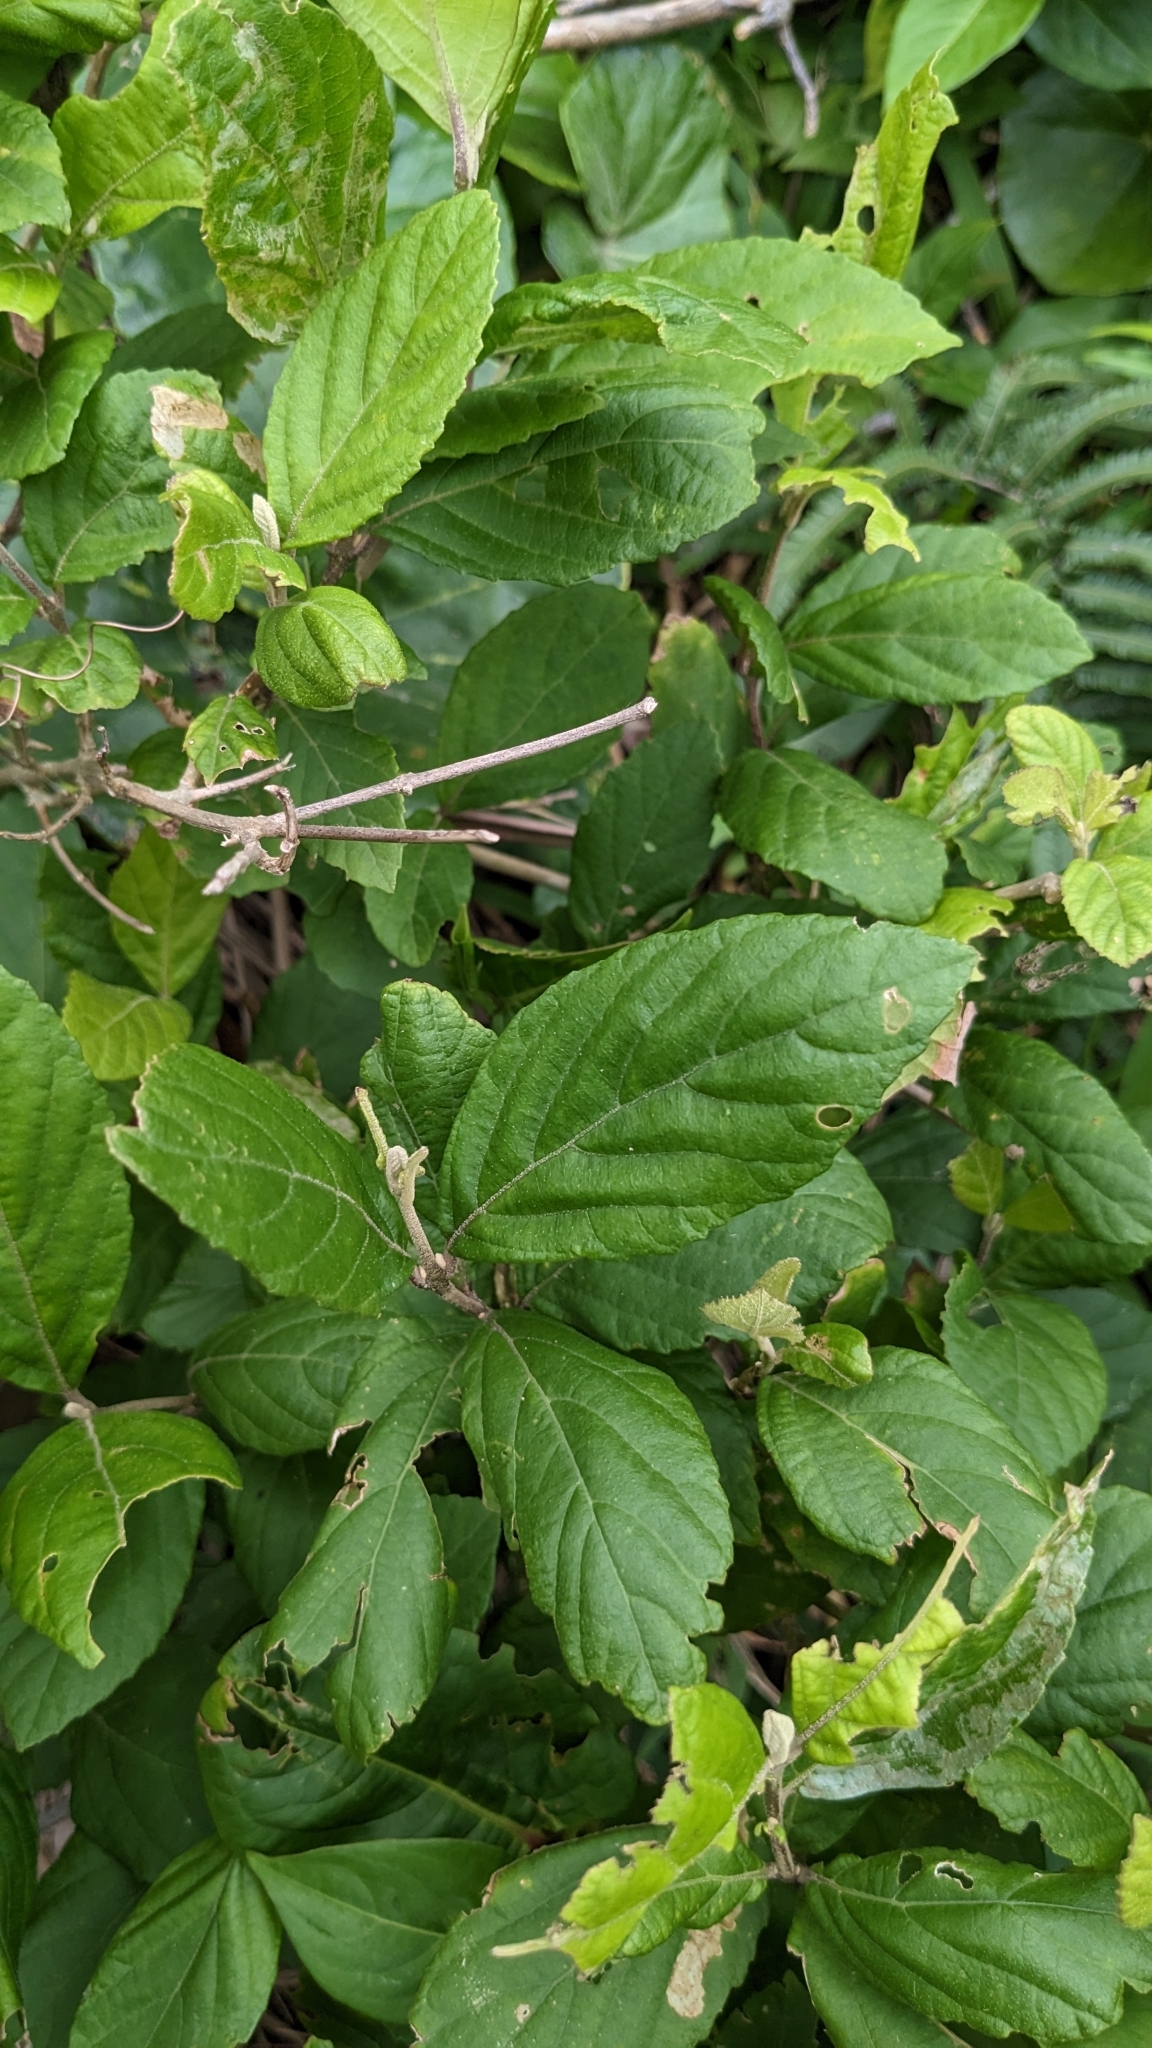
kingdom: Plantae
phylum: Tracheophyta
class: Magnoliopsida
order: Lamiales
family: Lamiaceae
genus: Callicarpa
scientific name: Callicarpa japonica
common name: Japanese beauty-berry
